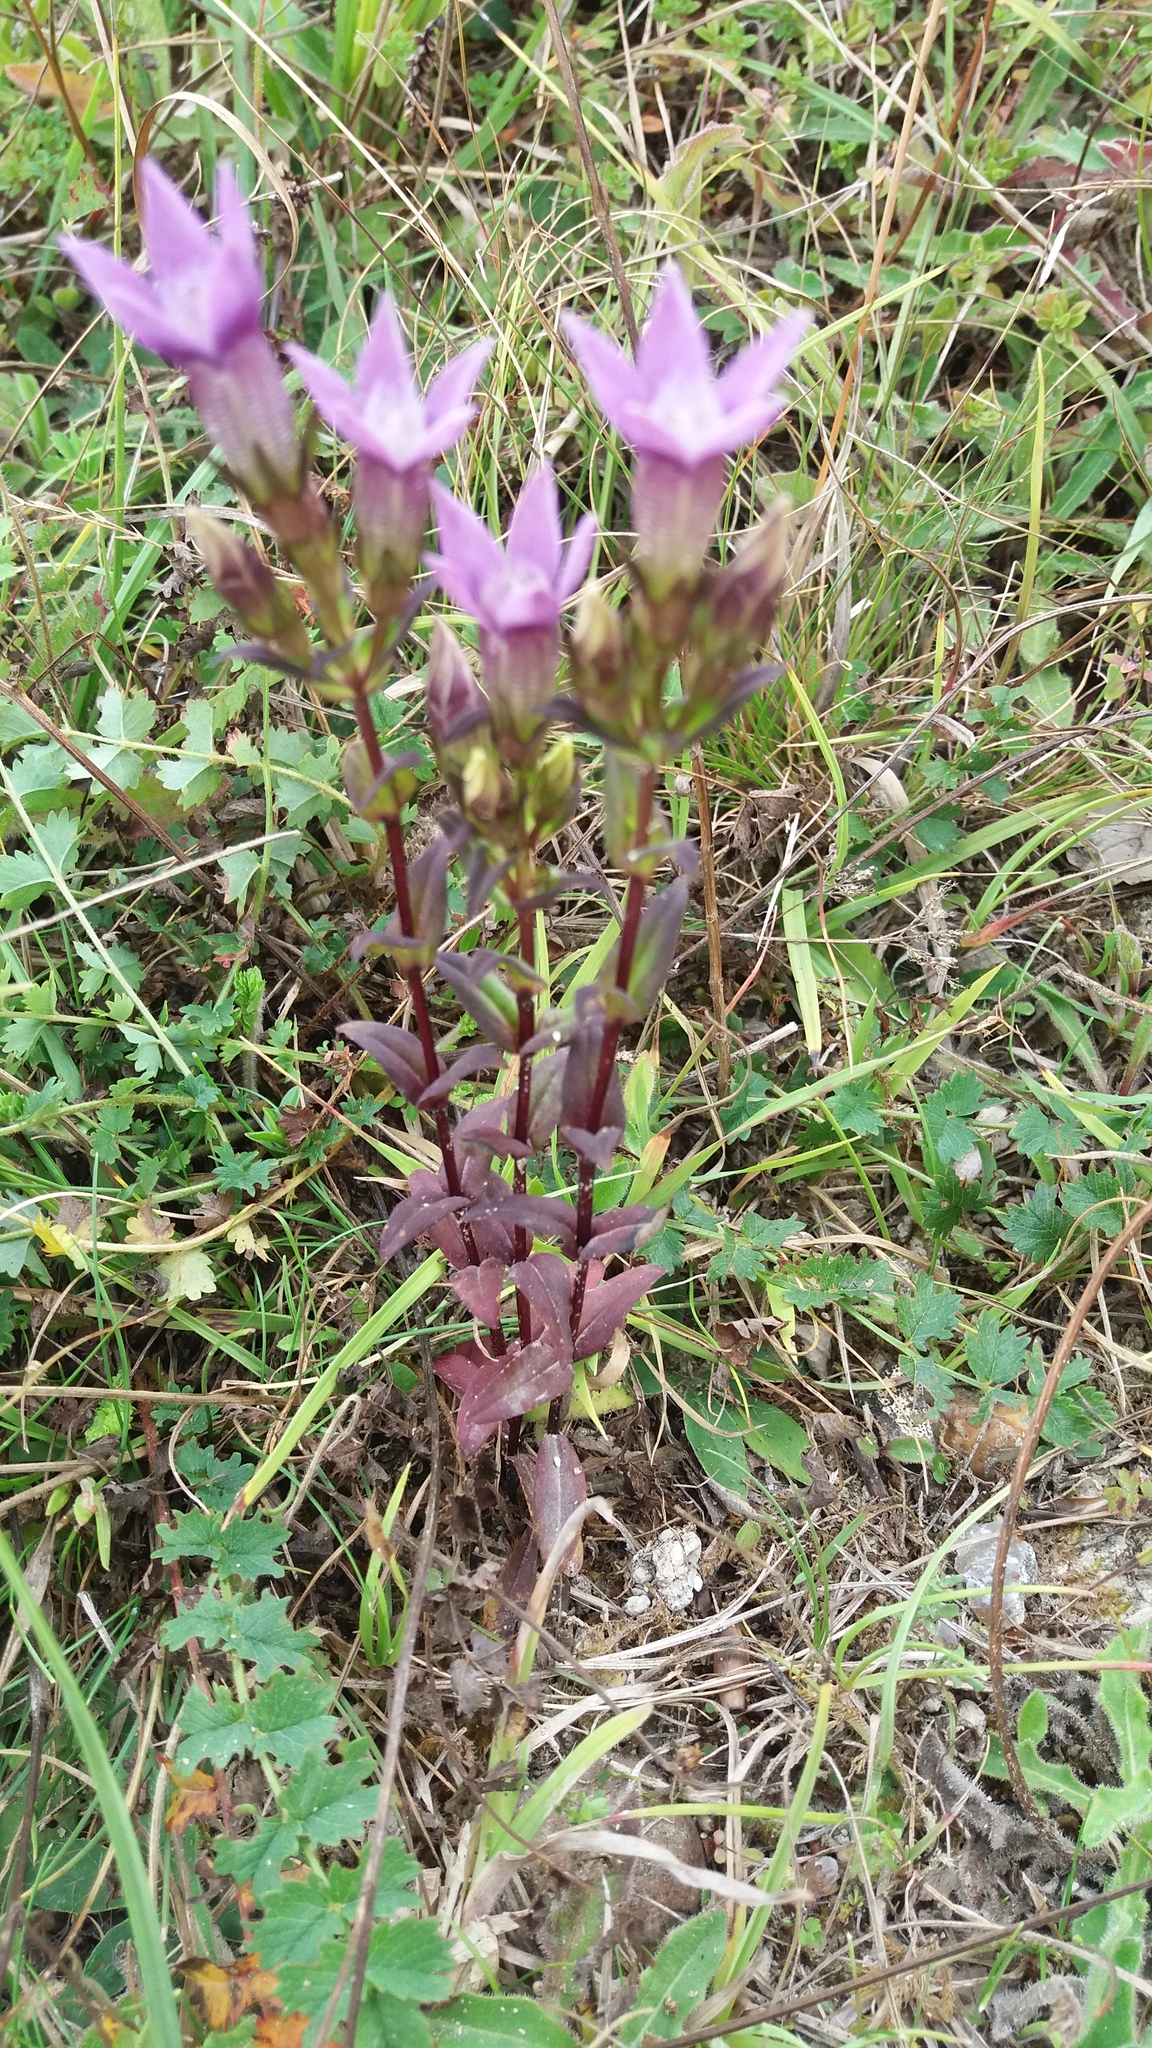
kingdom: Plantae
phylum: Tracheophyta
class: Magnoliopsida
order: Gentianales
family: Gentianaceae
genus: Gentianella
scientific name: Gentianella germanica
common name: Chiltern-gentian
